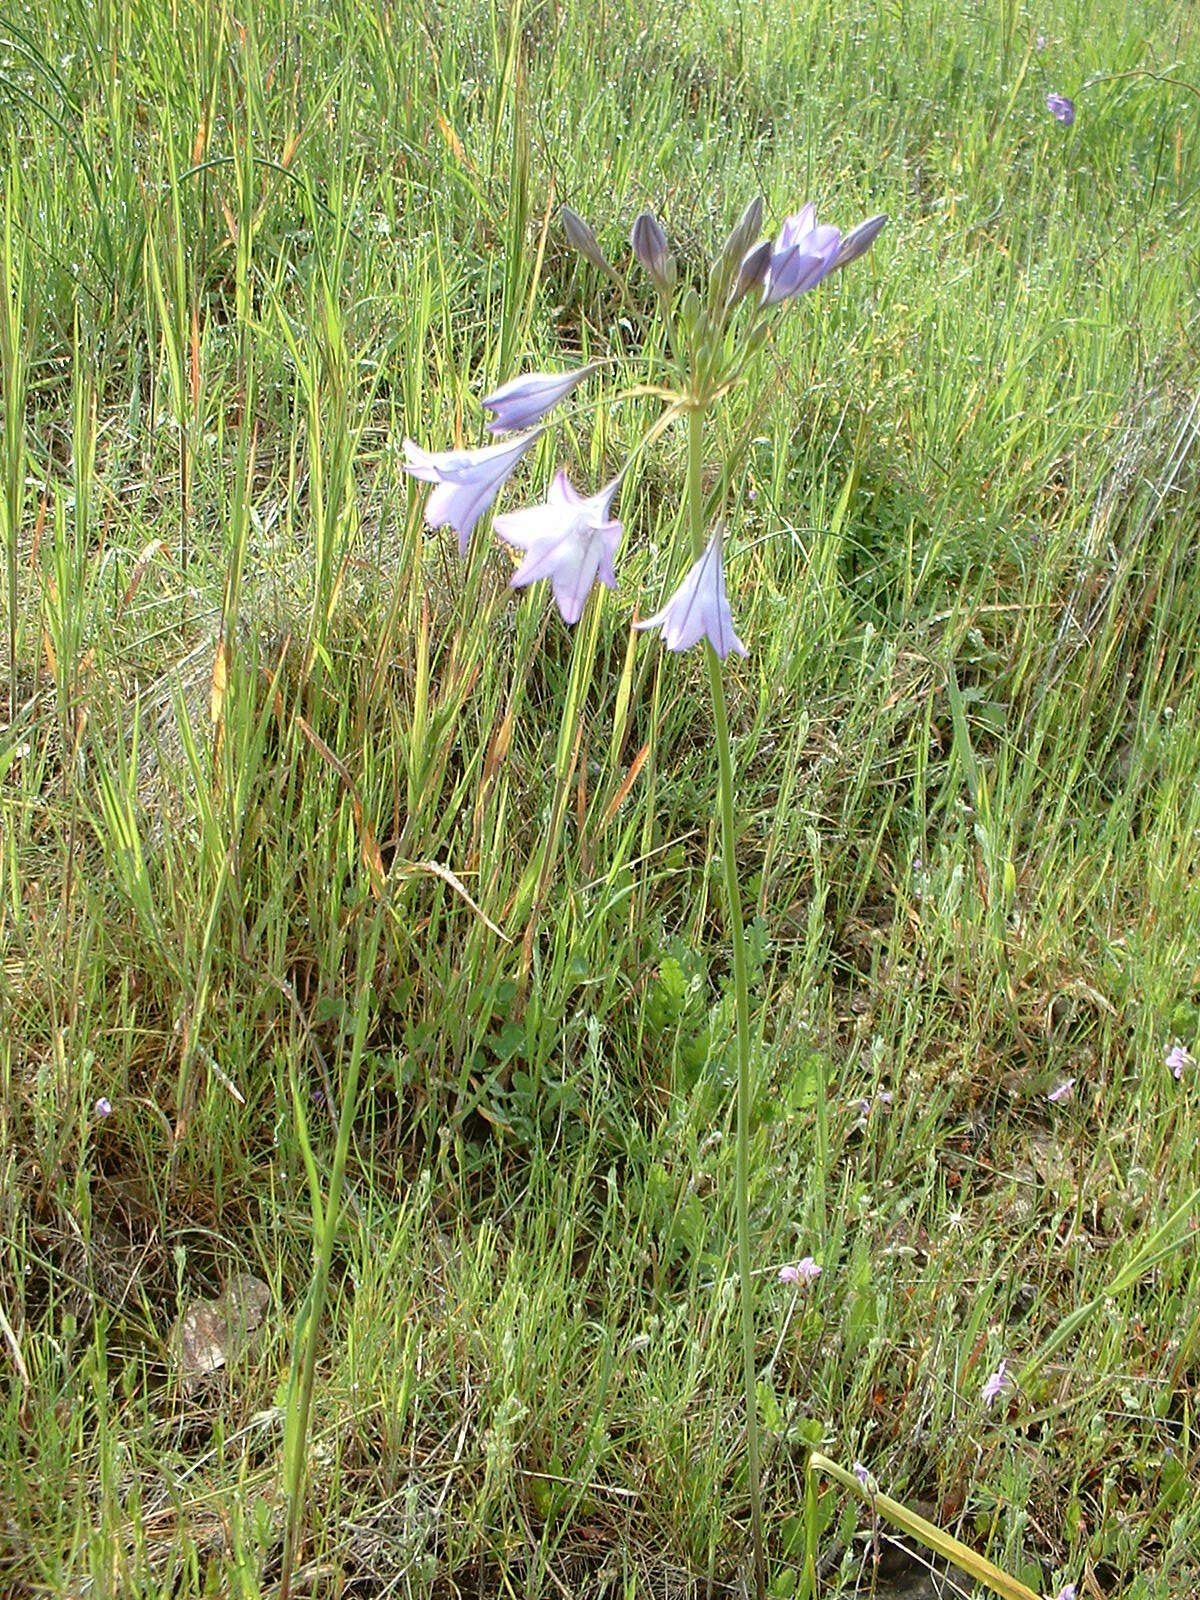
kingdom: Plantae
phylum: Tracheophyta
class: Liliopsida
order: Asparagales
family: Asparagaceae
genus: Triteleia
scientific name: Triteleia laxa
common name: Triplet-lily
